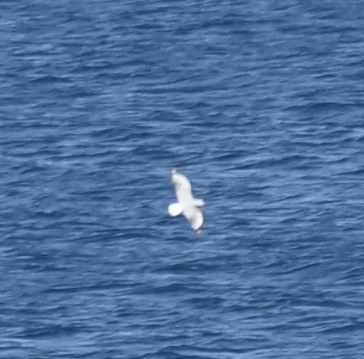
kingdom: Animalia
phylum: Chordata
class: Aves
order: Charadriiformes
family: Laridae
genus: Chroicocephalus
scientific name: Chroicocephalus novaehollandiae
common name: Silver gull
